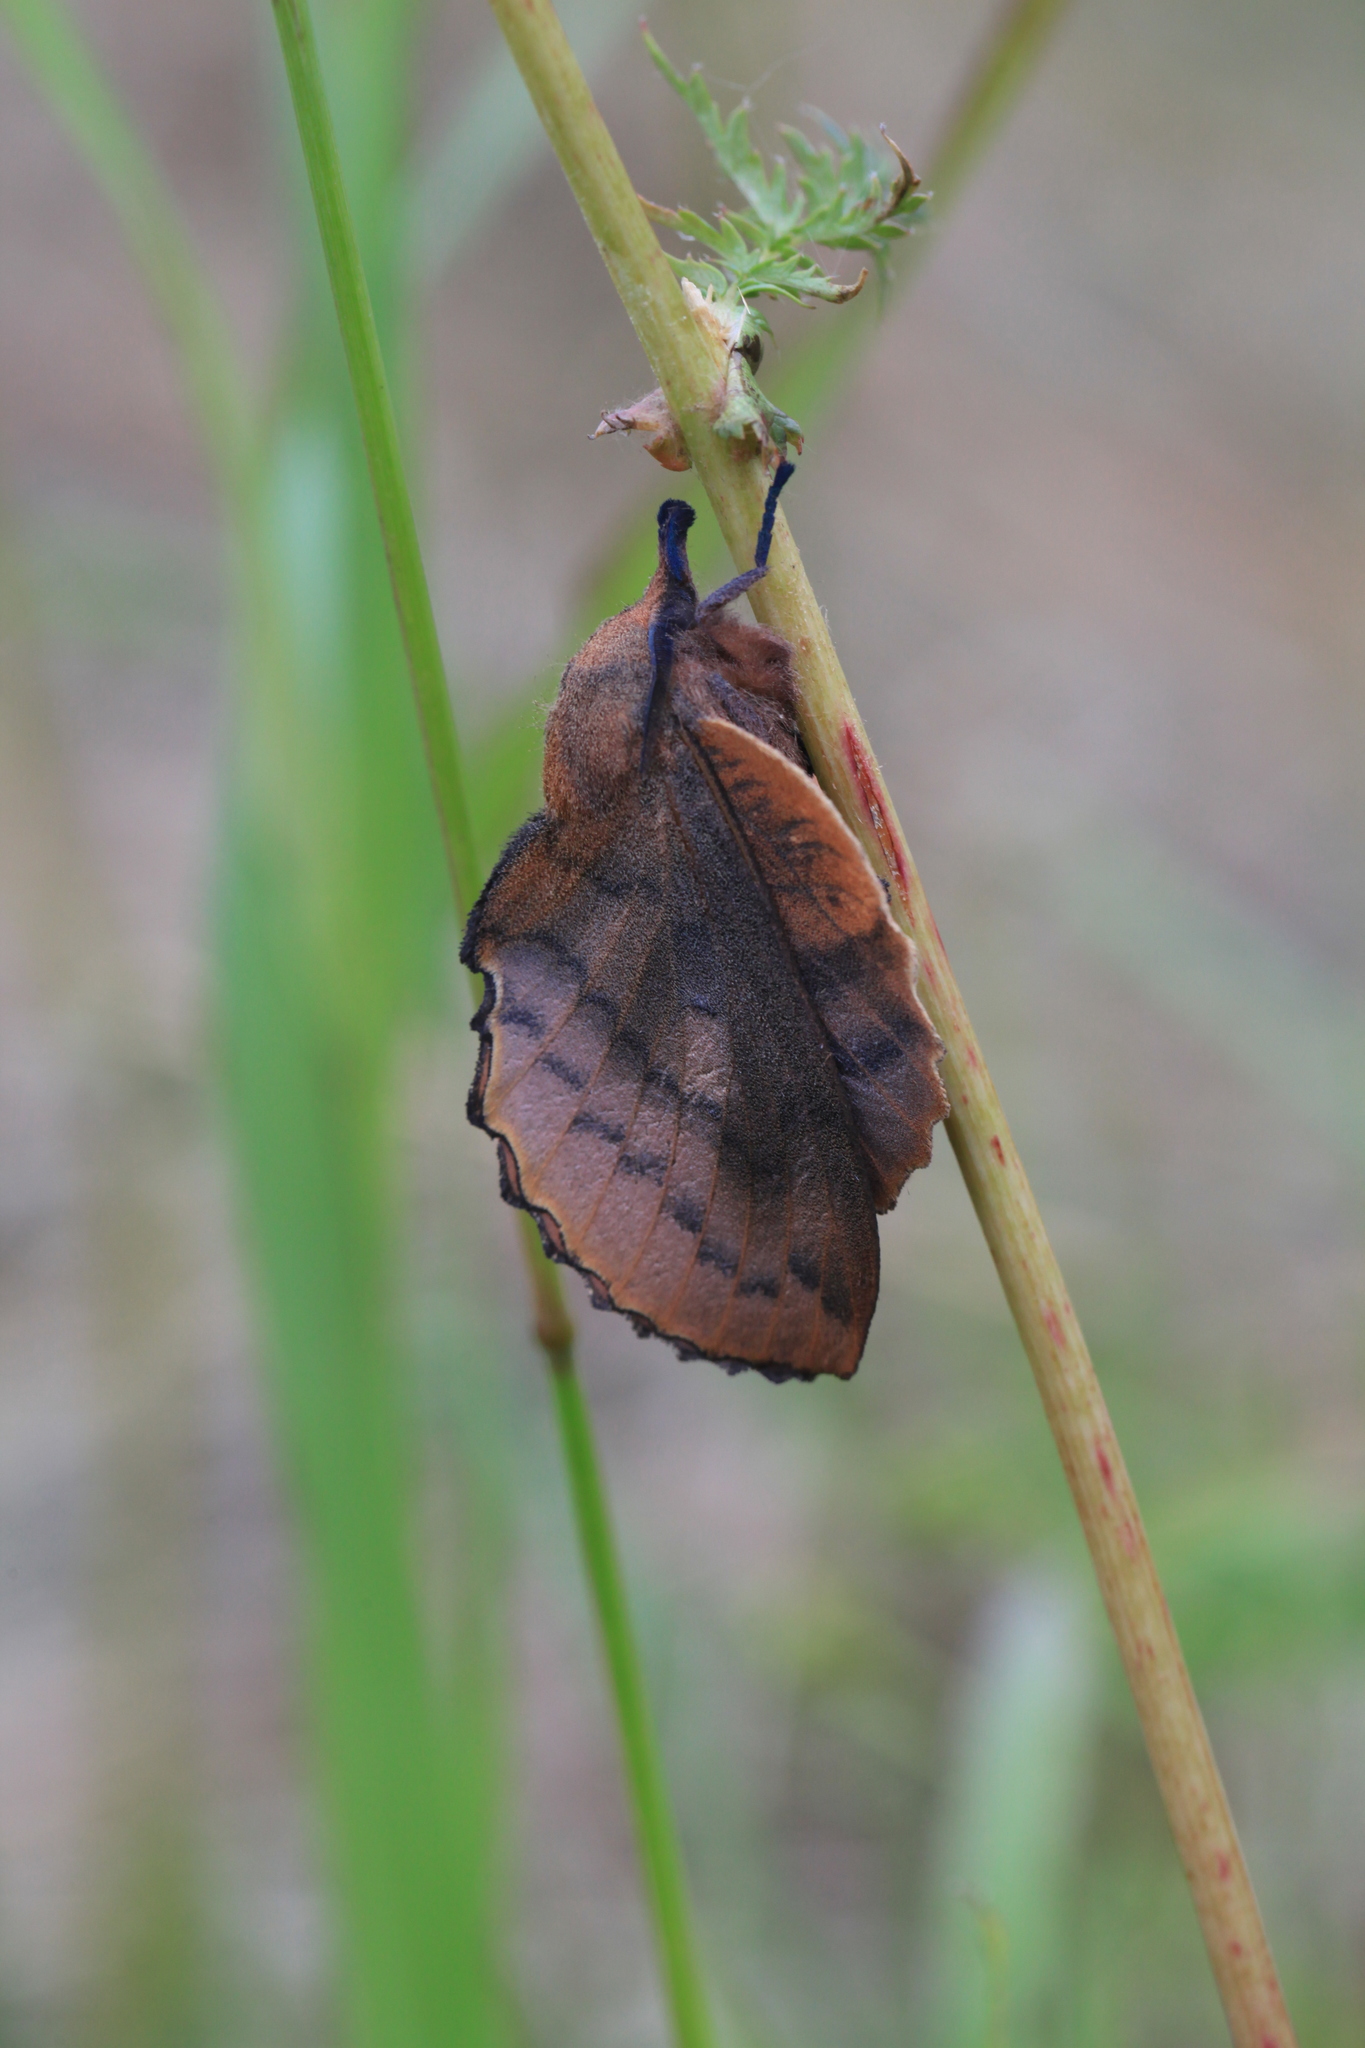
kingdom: Animalia
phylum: Arthropoda
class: Insecta
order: Lepidoptera
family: Lasiocampidae
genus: Gastropacha
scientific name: Gastropacha quercifolia
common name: Lappet
